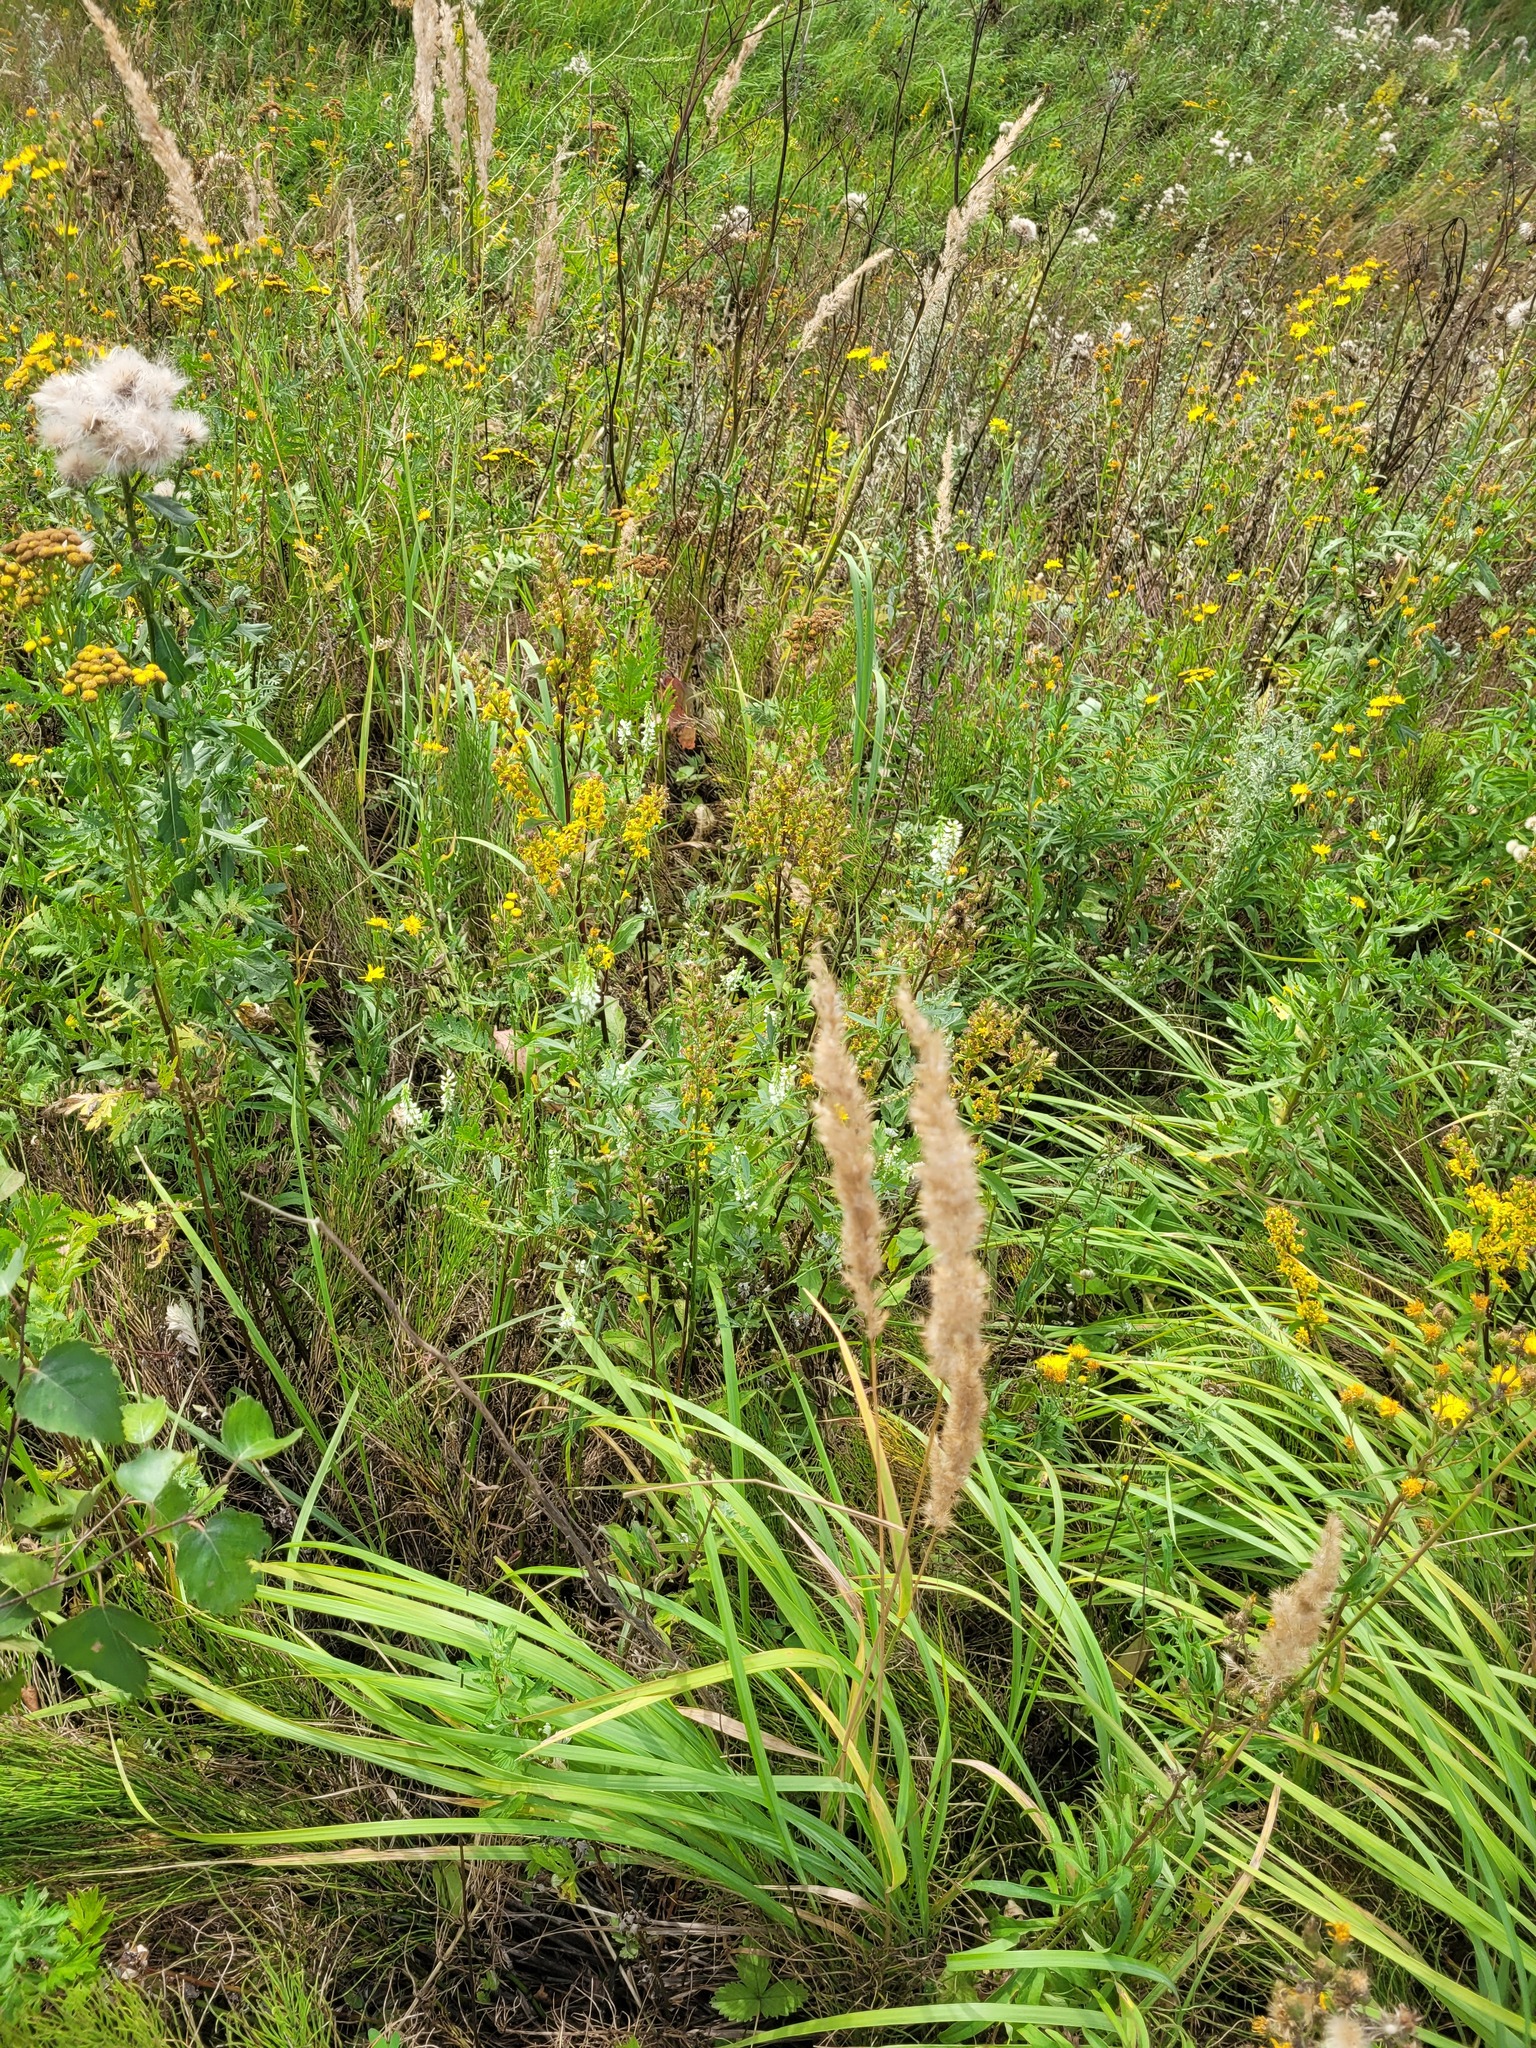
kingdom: Plantae
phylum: Tracheophyta
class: Liliopsida
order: Poales
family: Poaceae
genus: Calamagrostis
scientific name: Calamagrostis epigejos
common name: Wood small-reed
